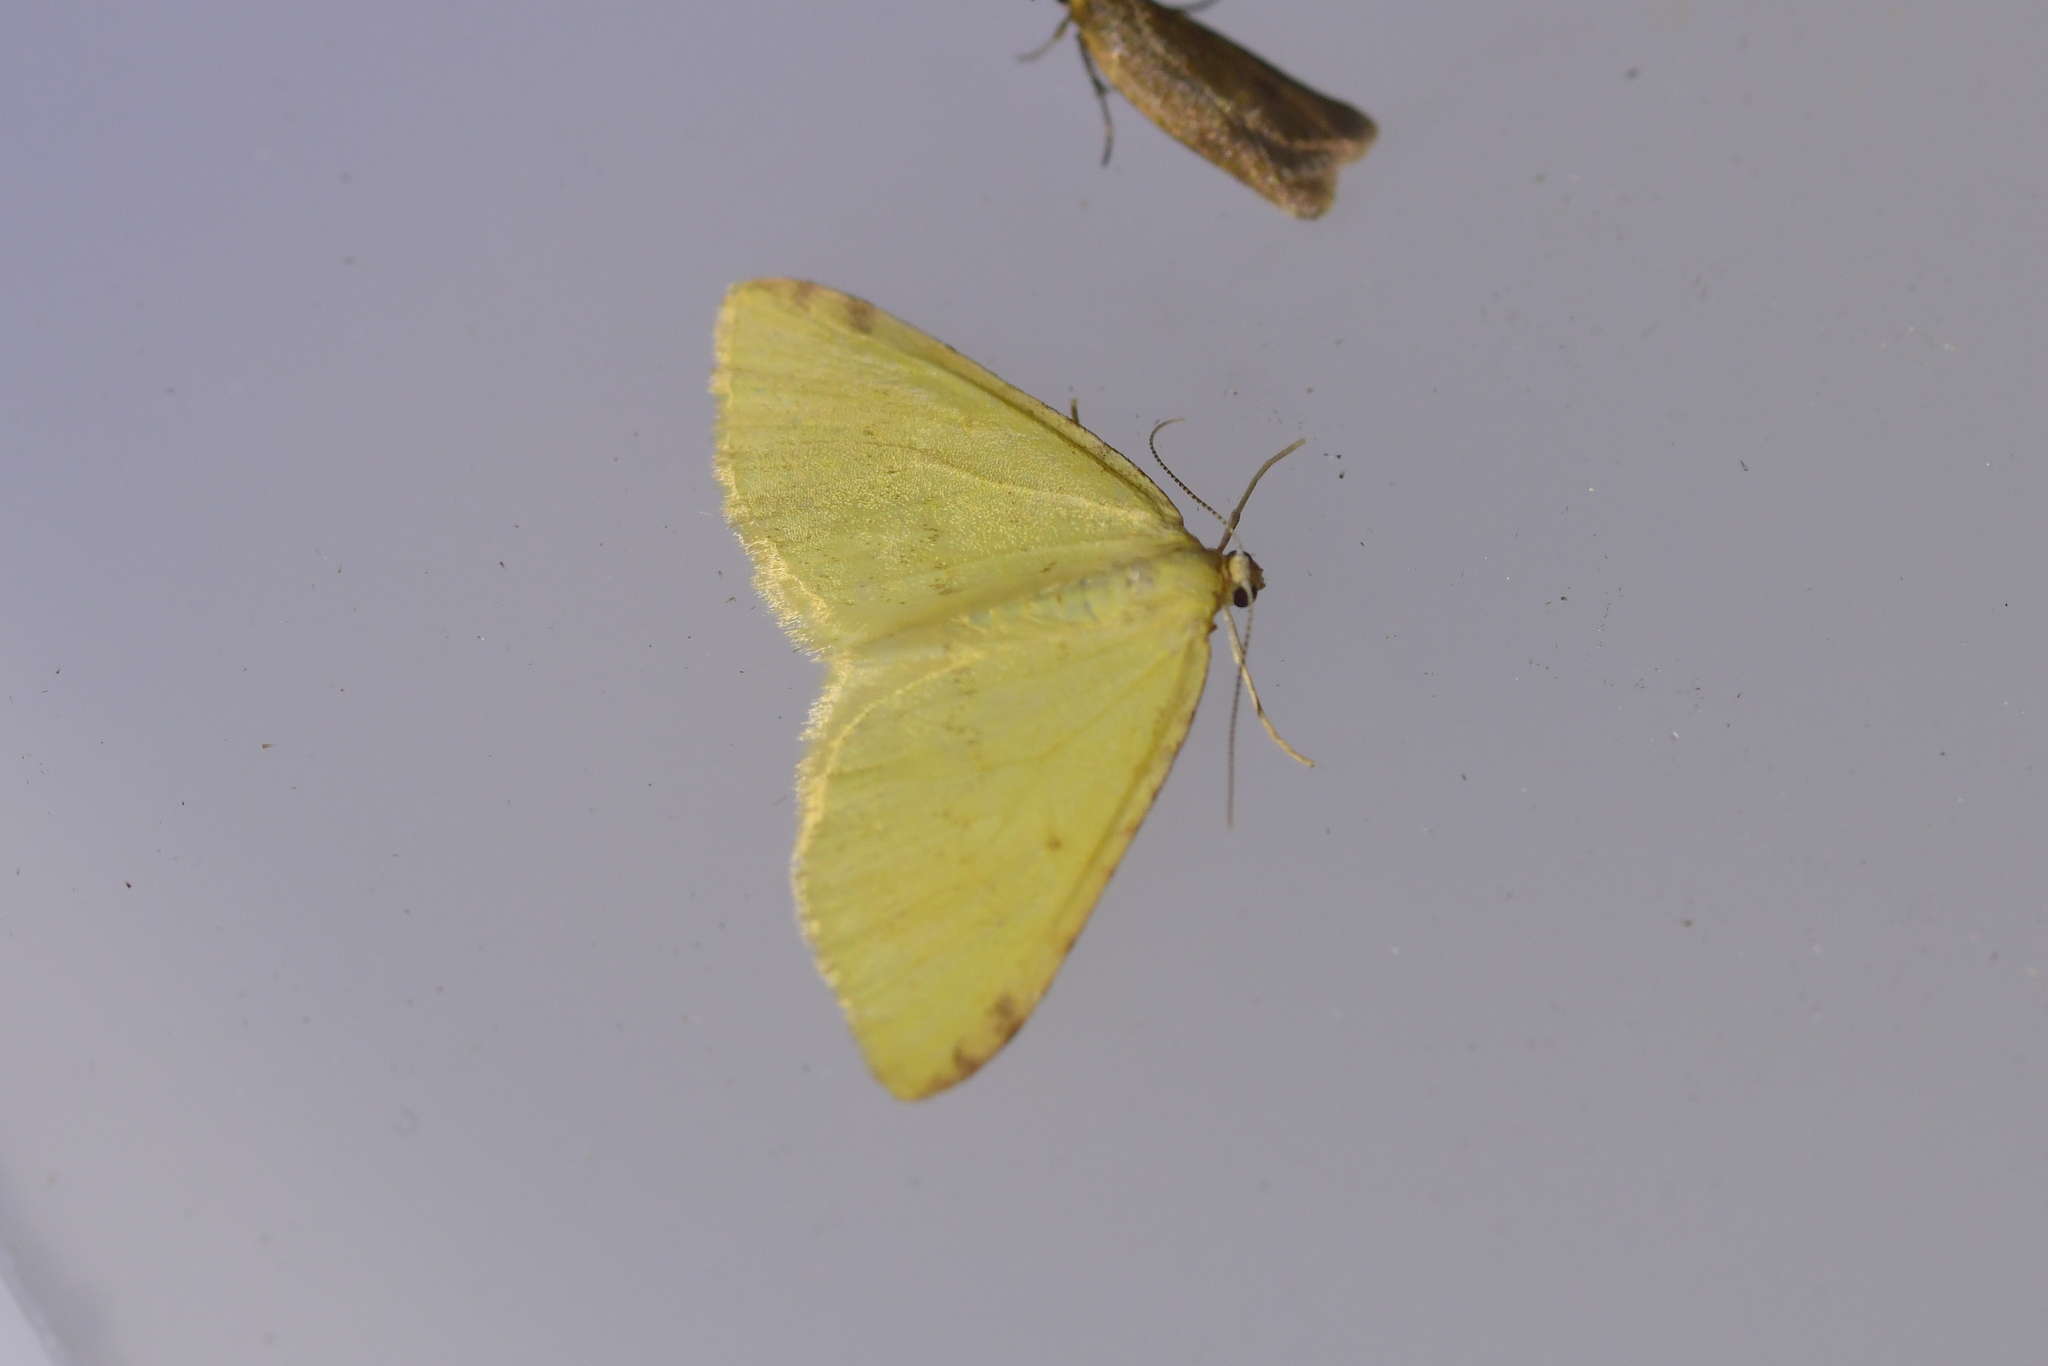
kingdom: Animalia
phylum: Arthropoda
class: Insecta
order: Lepidoptera
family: Geometridae
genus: Epiphryne
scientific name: Epiphryne undosata
